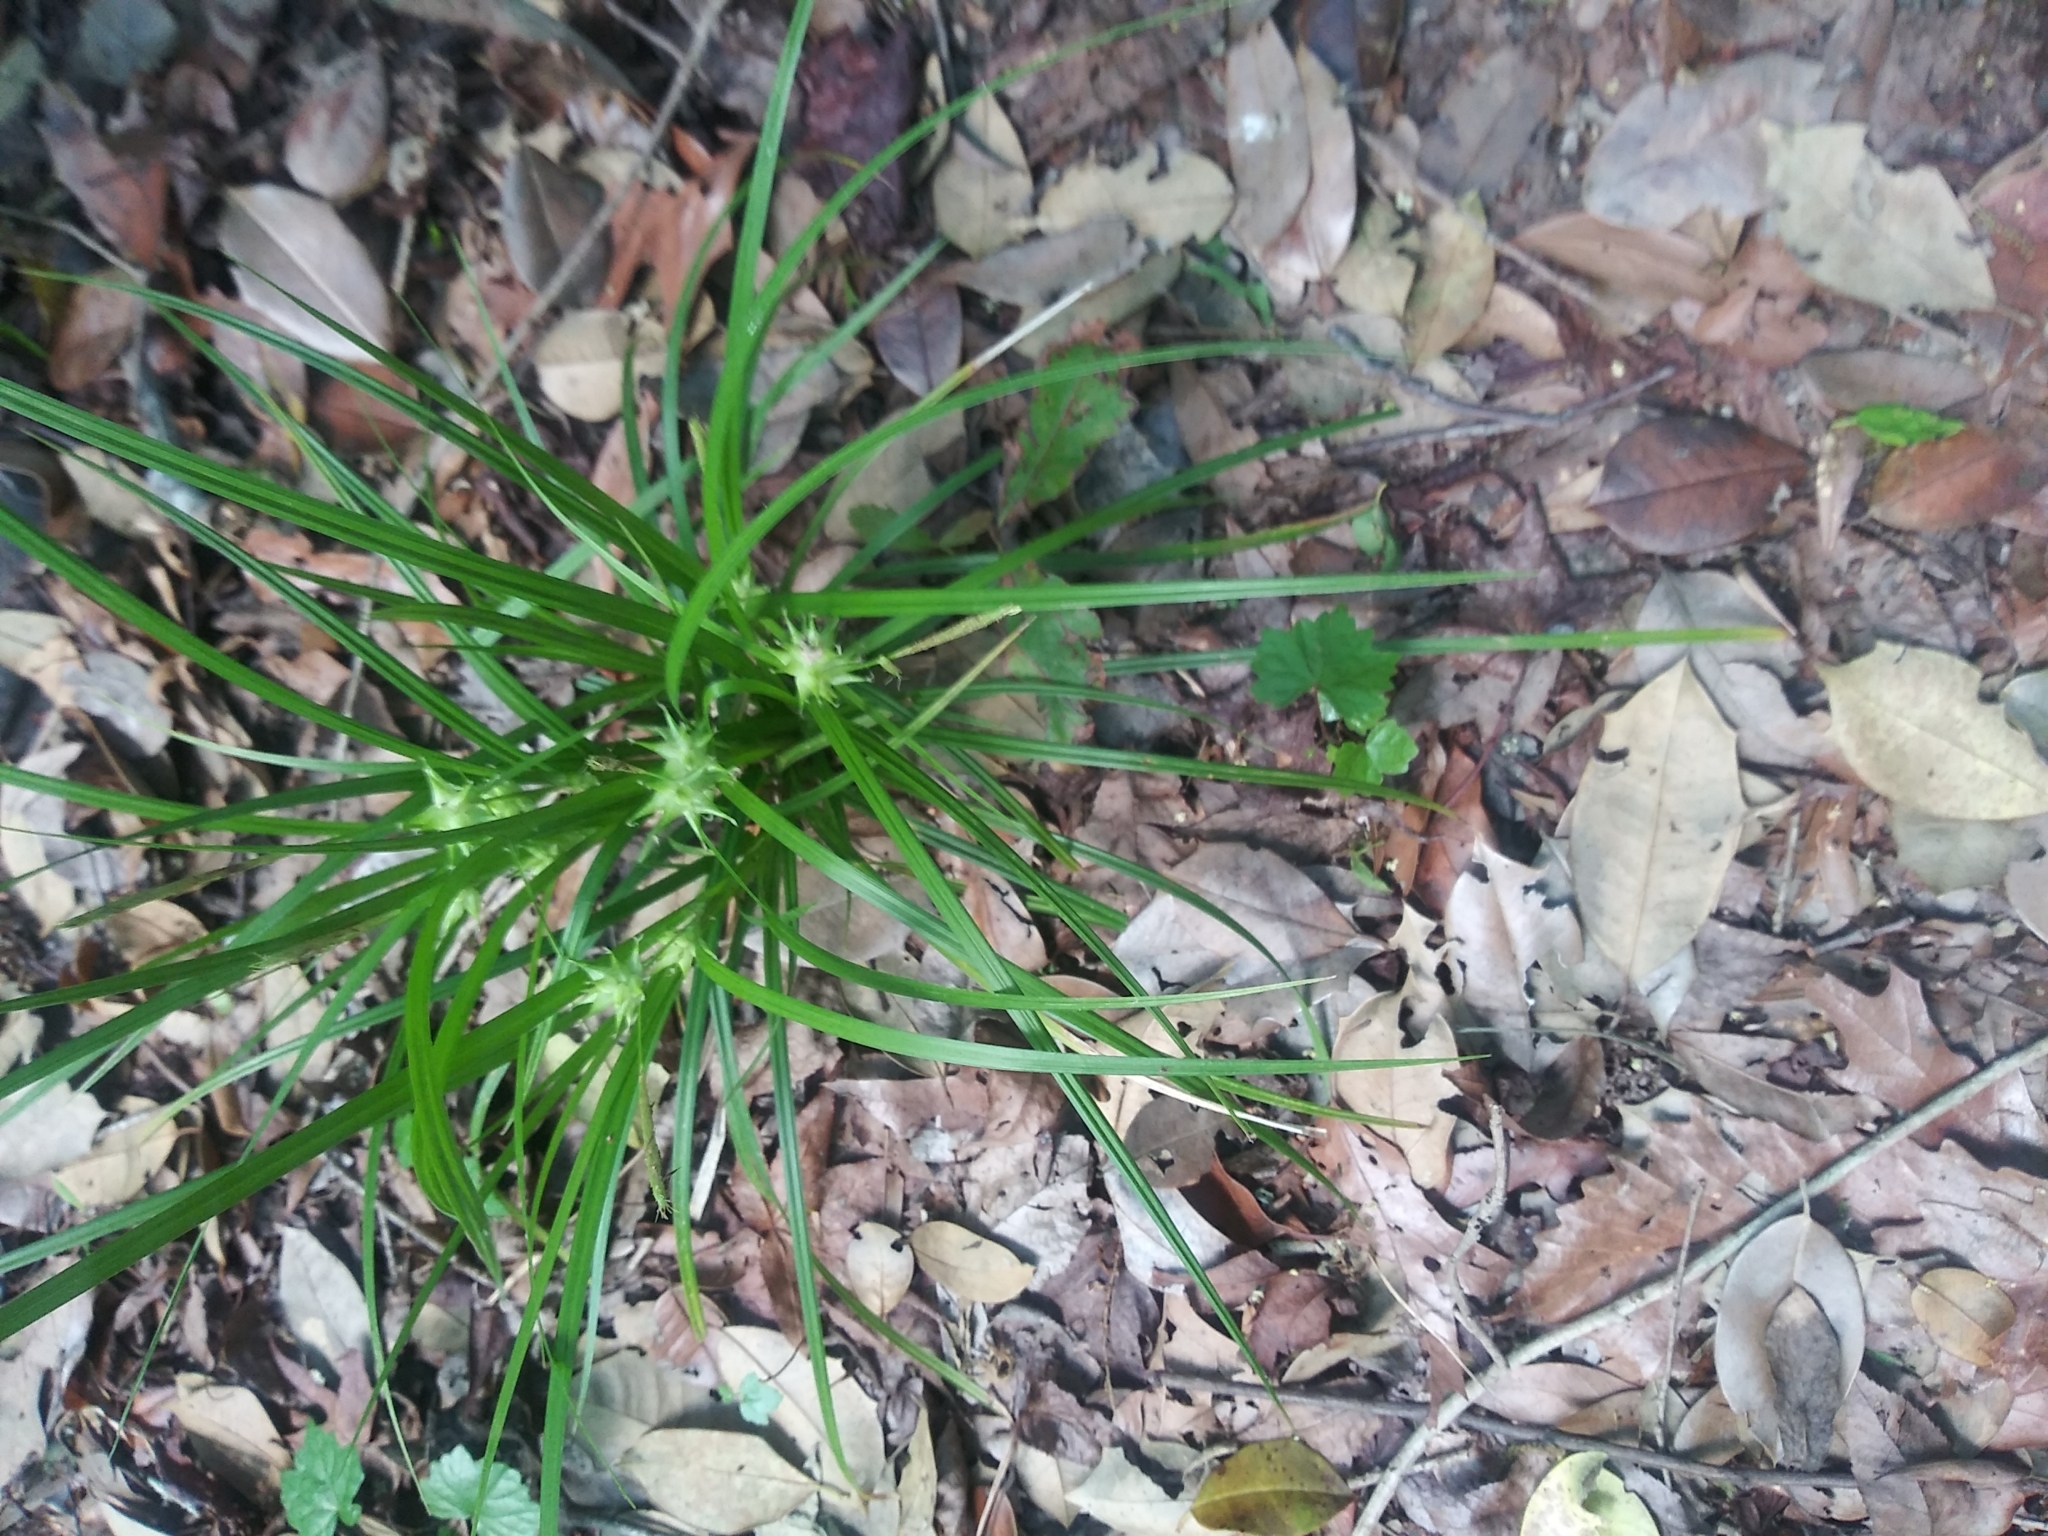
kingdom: Plantae
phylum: Tracheophyta
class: Liliopsida
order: Poales
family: Cyperaceae
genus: Carex
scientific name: Carex intumescens
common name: Greater bladder sedge
